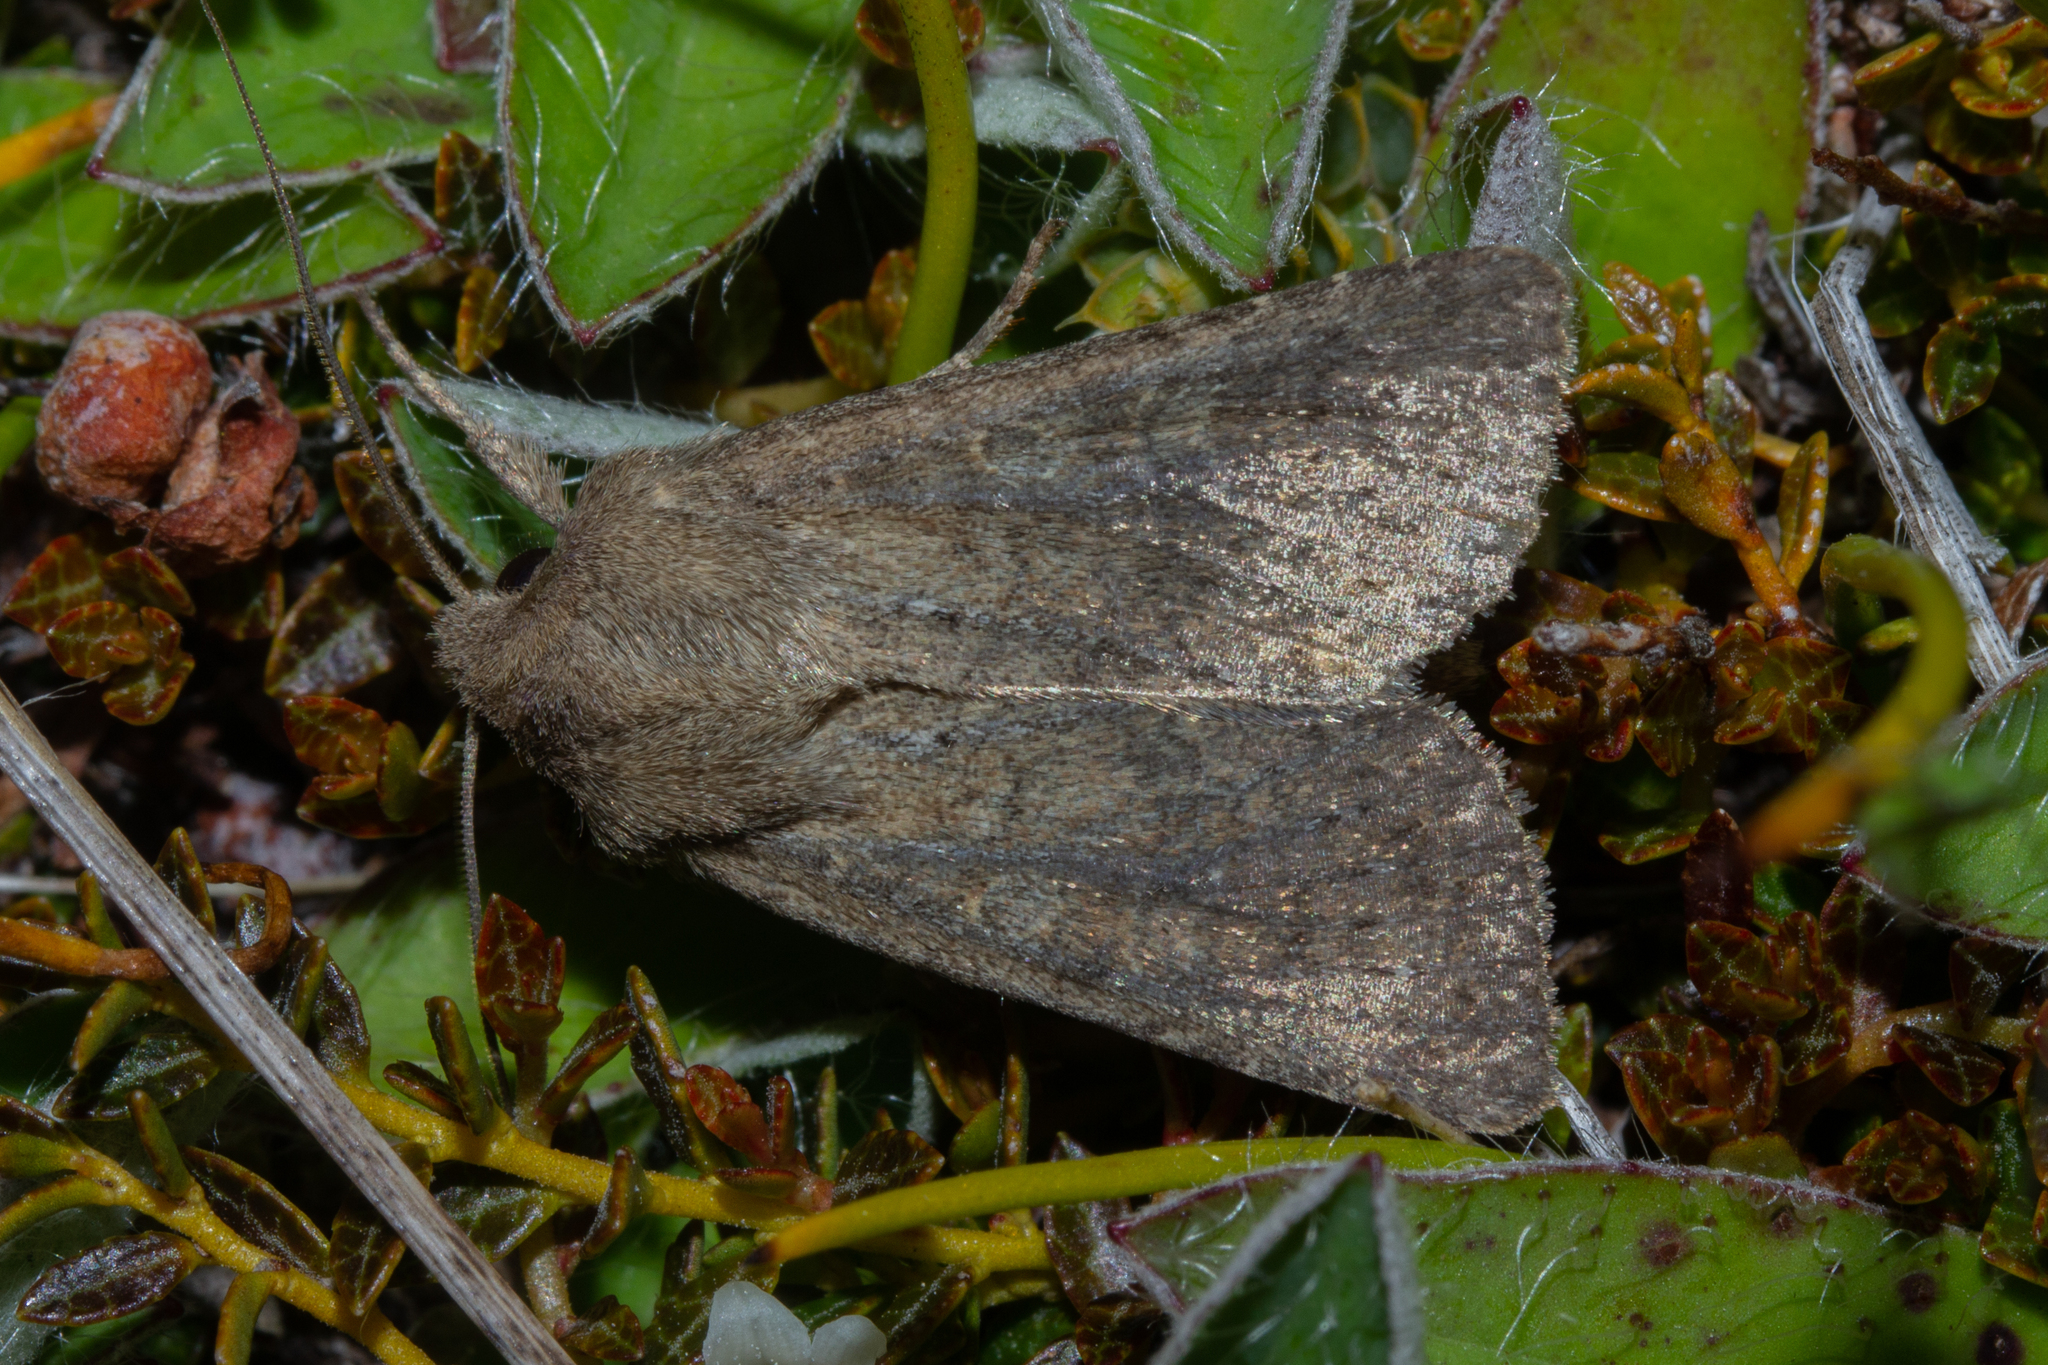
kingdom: Animalia
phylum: Arthropoda
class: Insecta
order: Lepidoptera
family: Noctuidae
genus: Physetica
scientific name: Physetica
